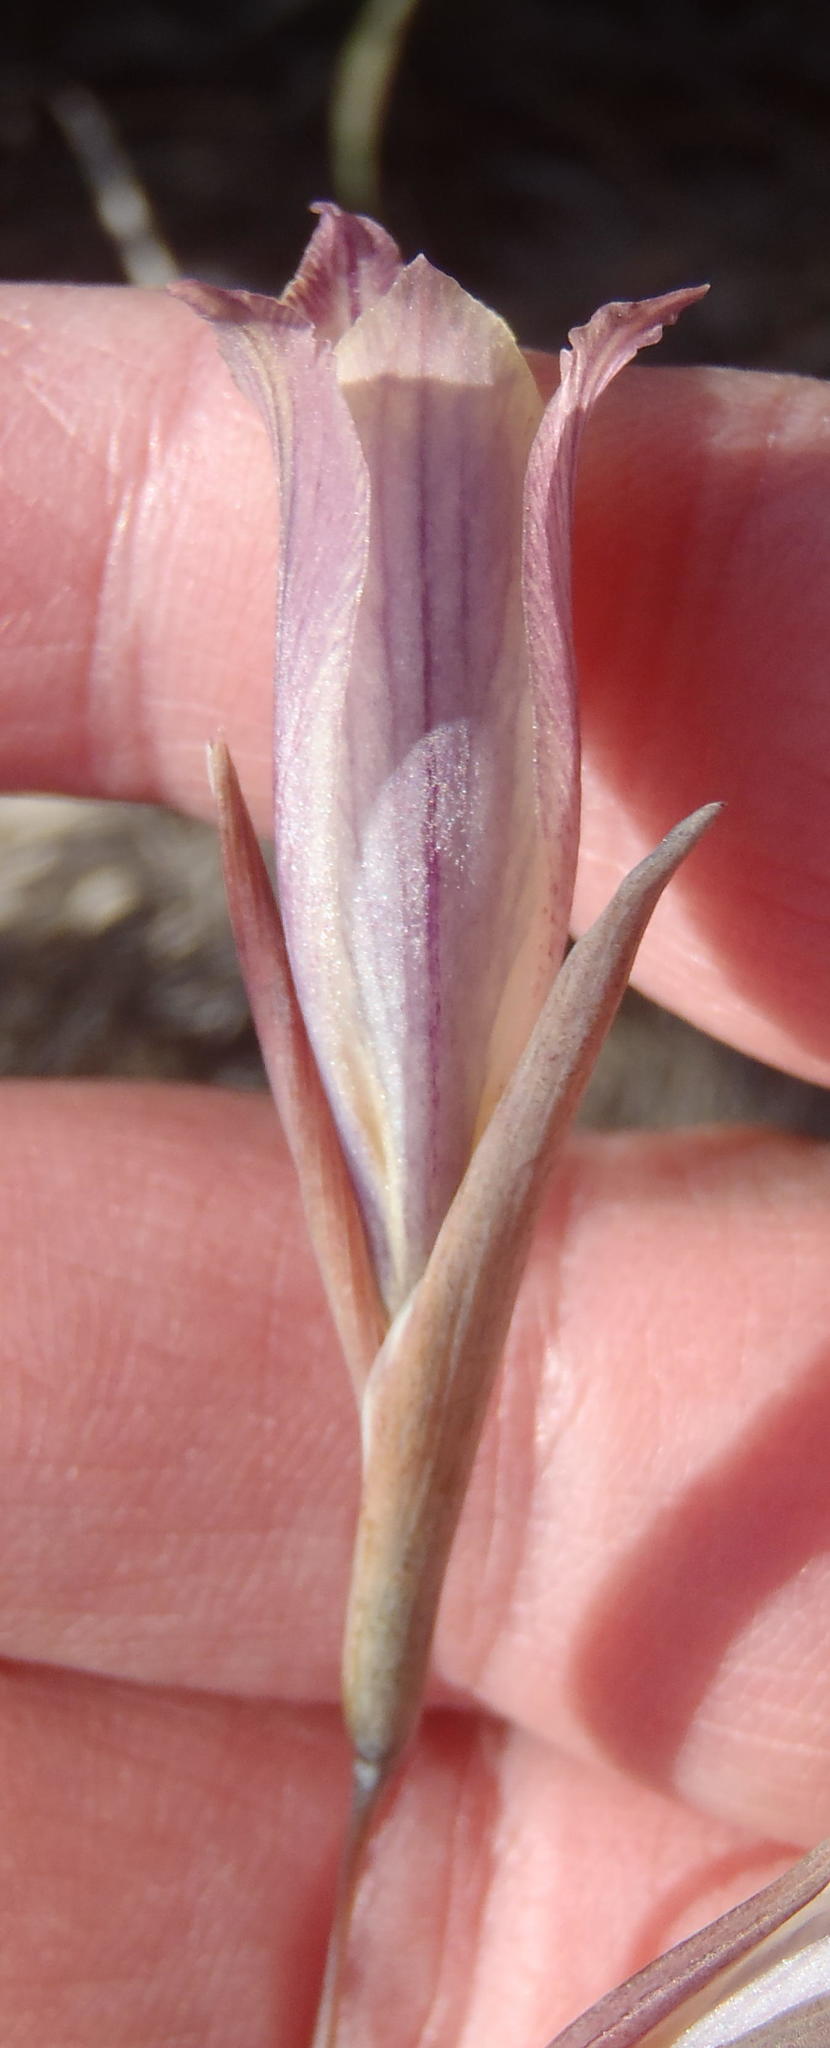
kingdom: Plantae
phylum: Tracheophyta
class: Liliopsida
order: Asparagales
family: Iridaceae
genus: Gladiolus
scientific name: Gladiolus mutabilis
